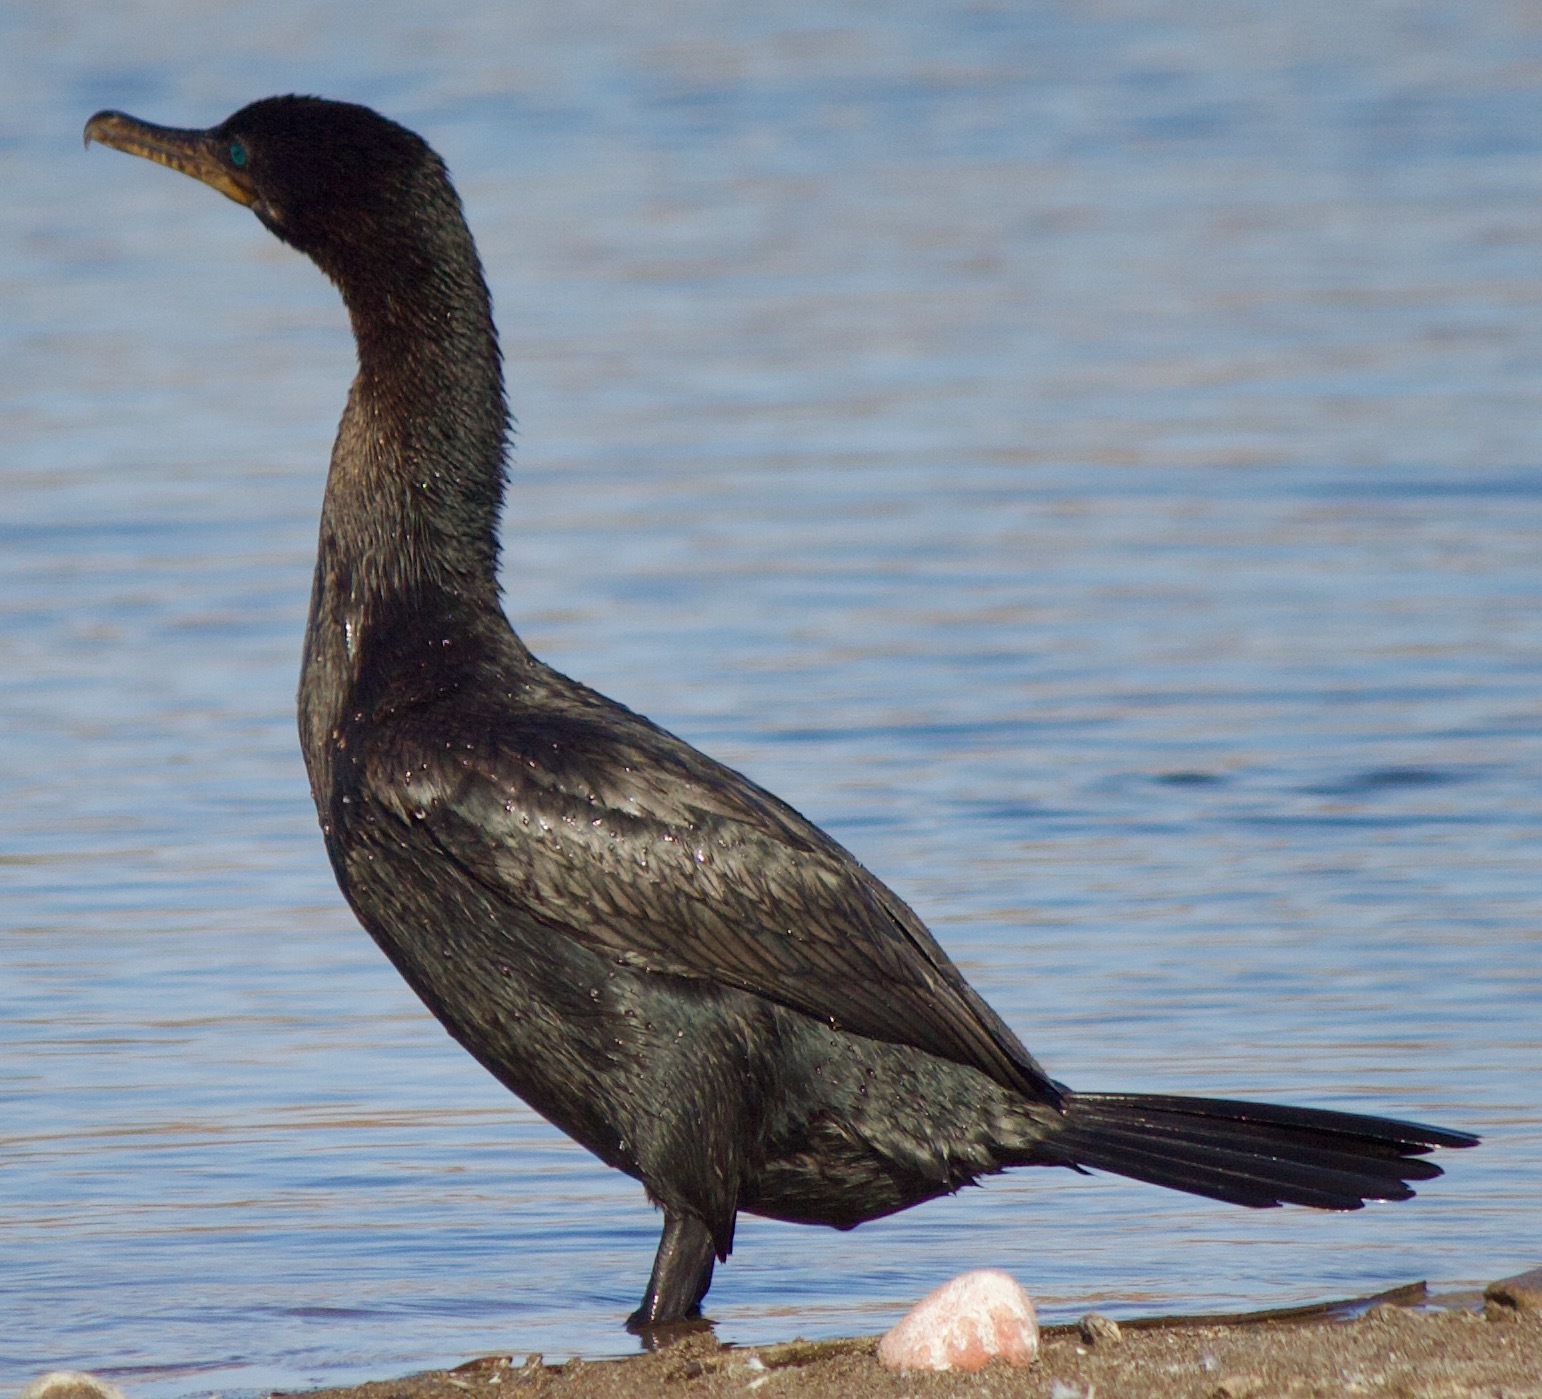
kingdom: Animalia
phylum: Chordata
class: Aves
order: Suliformes
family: Phalacrocoracidae
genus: Phalacrocorax
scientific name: Phalacrocorax brasilianus
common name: Neotropic cormorant
